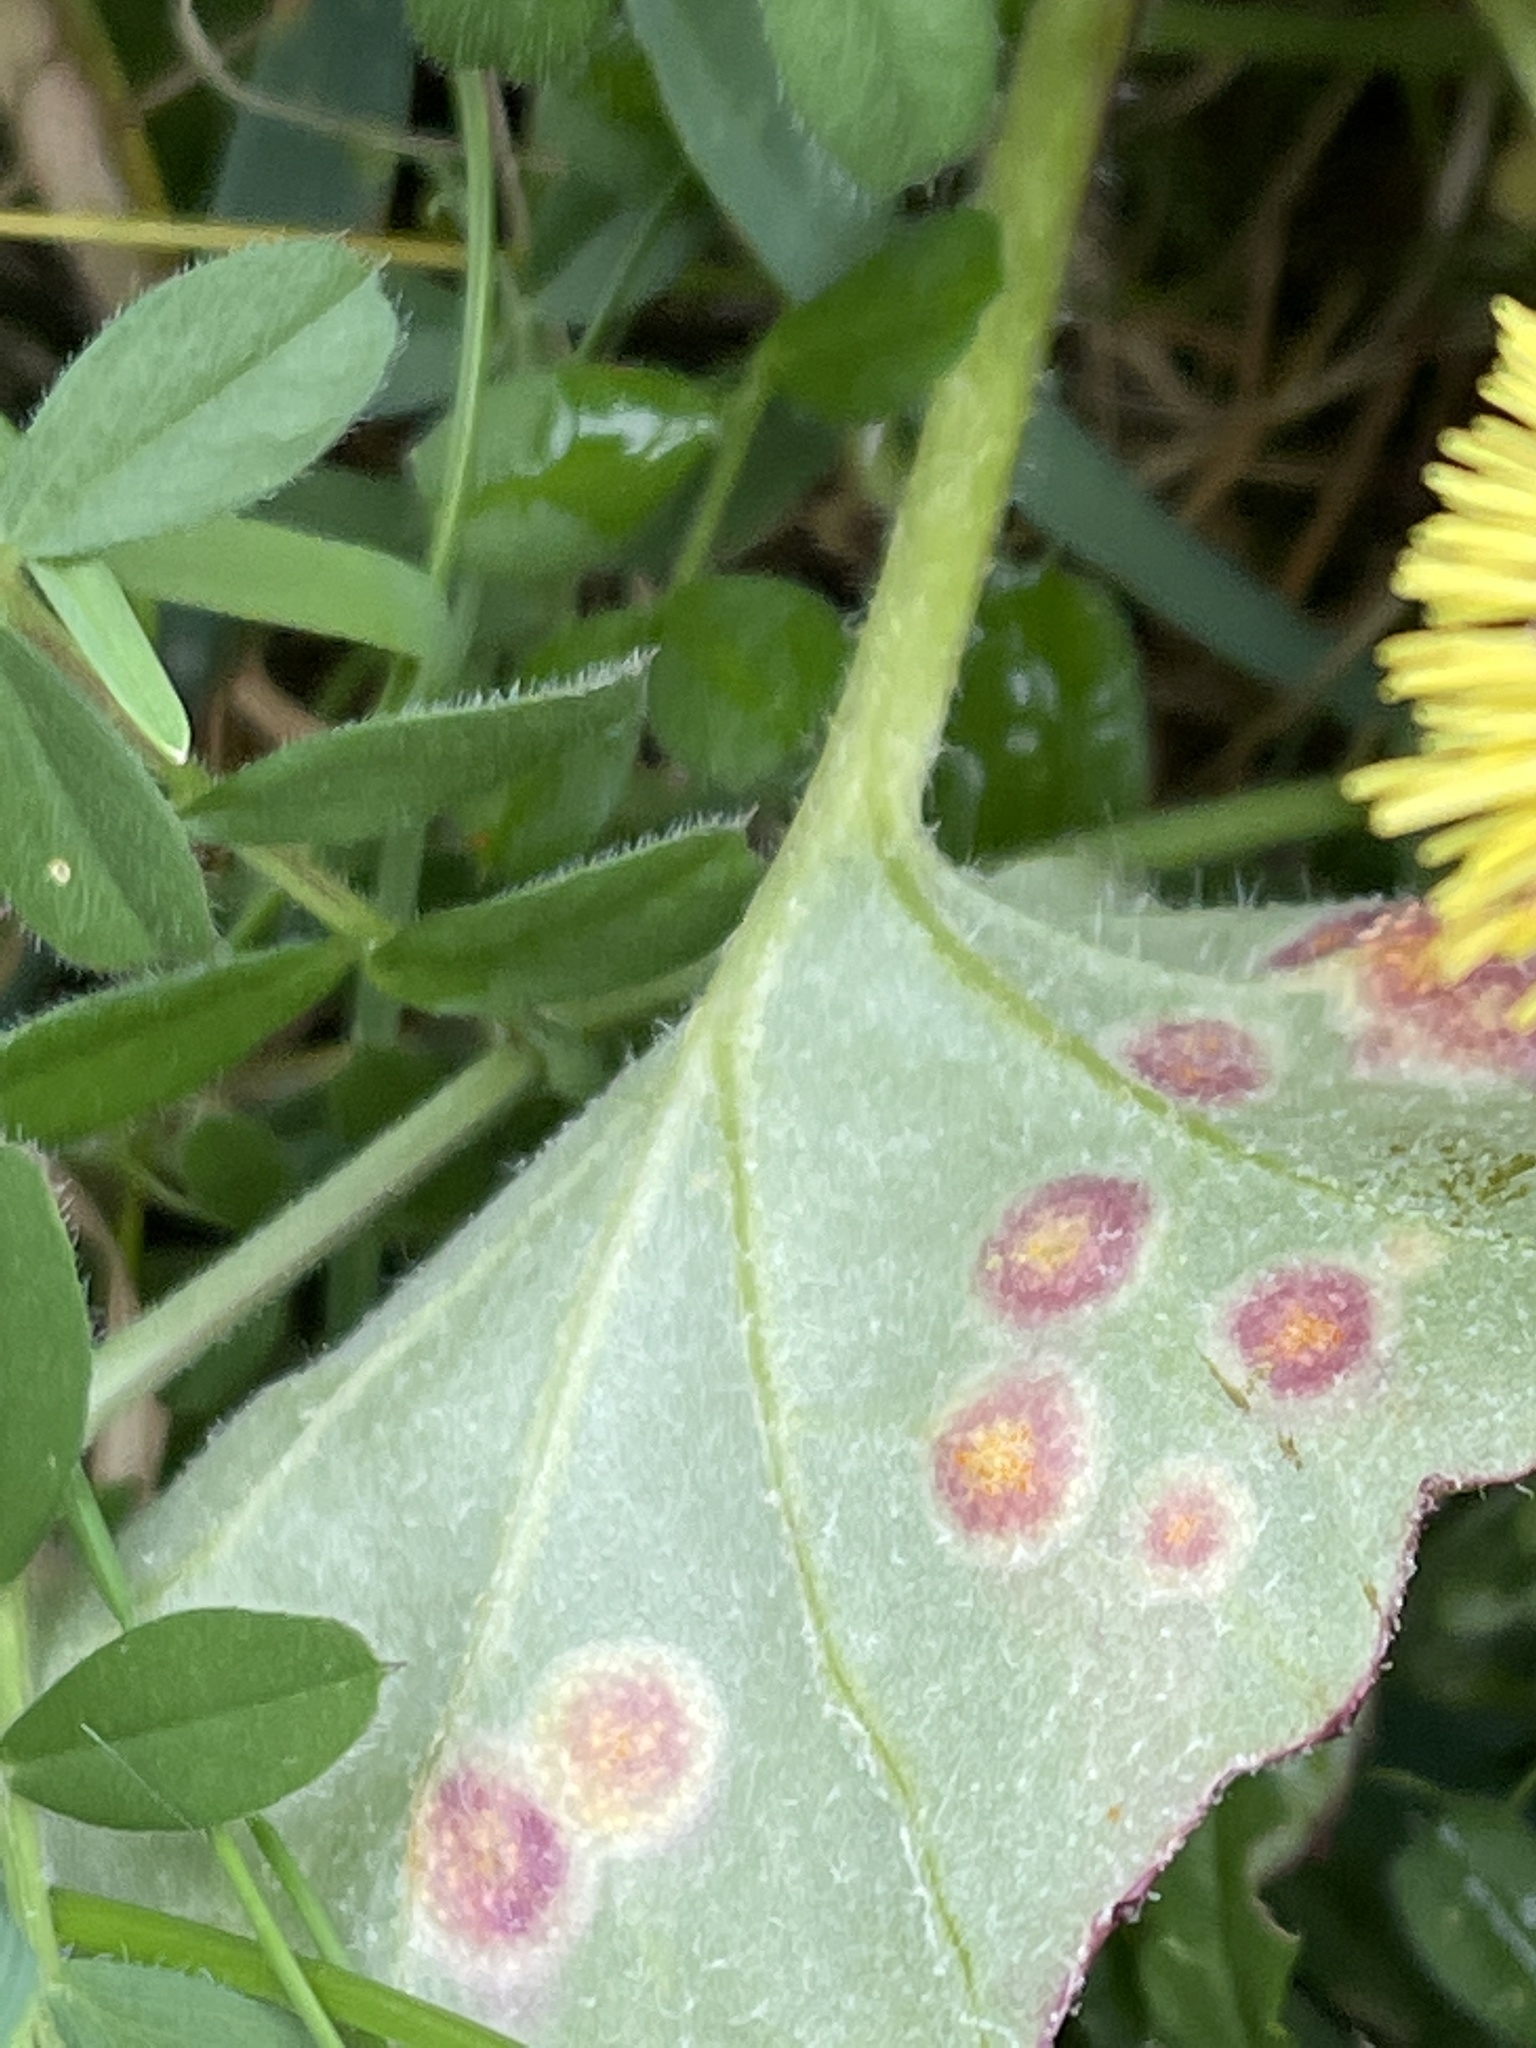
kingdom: Fungi
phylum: Basidiomycota
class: Pucciniomycetes
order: Pucciniales
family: Pucciniaceae
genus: Puccinia
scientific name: Puccinia
